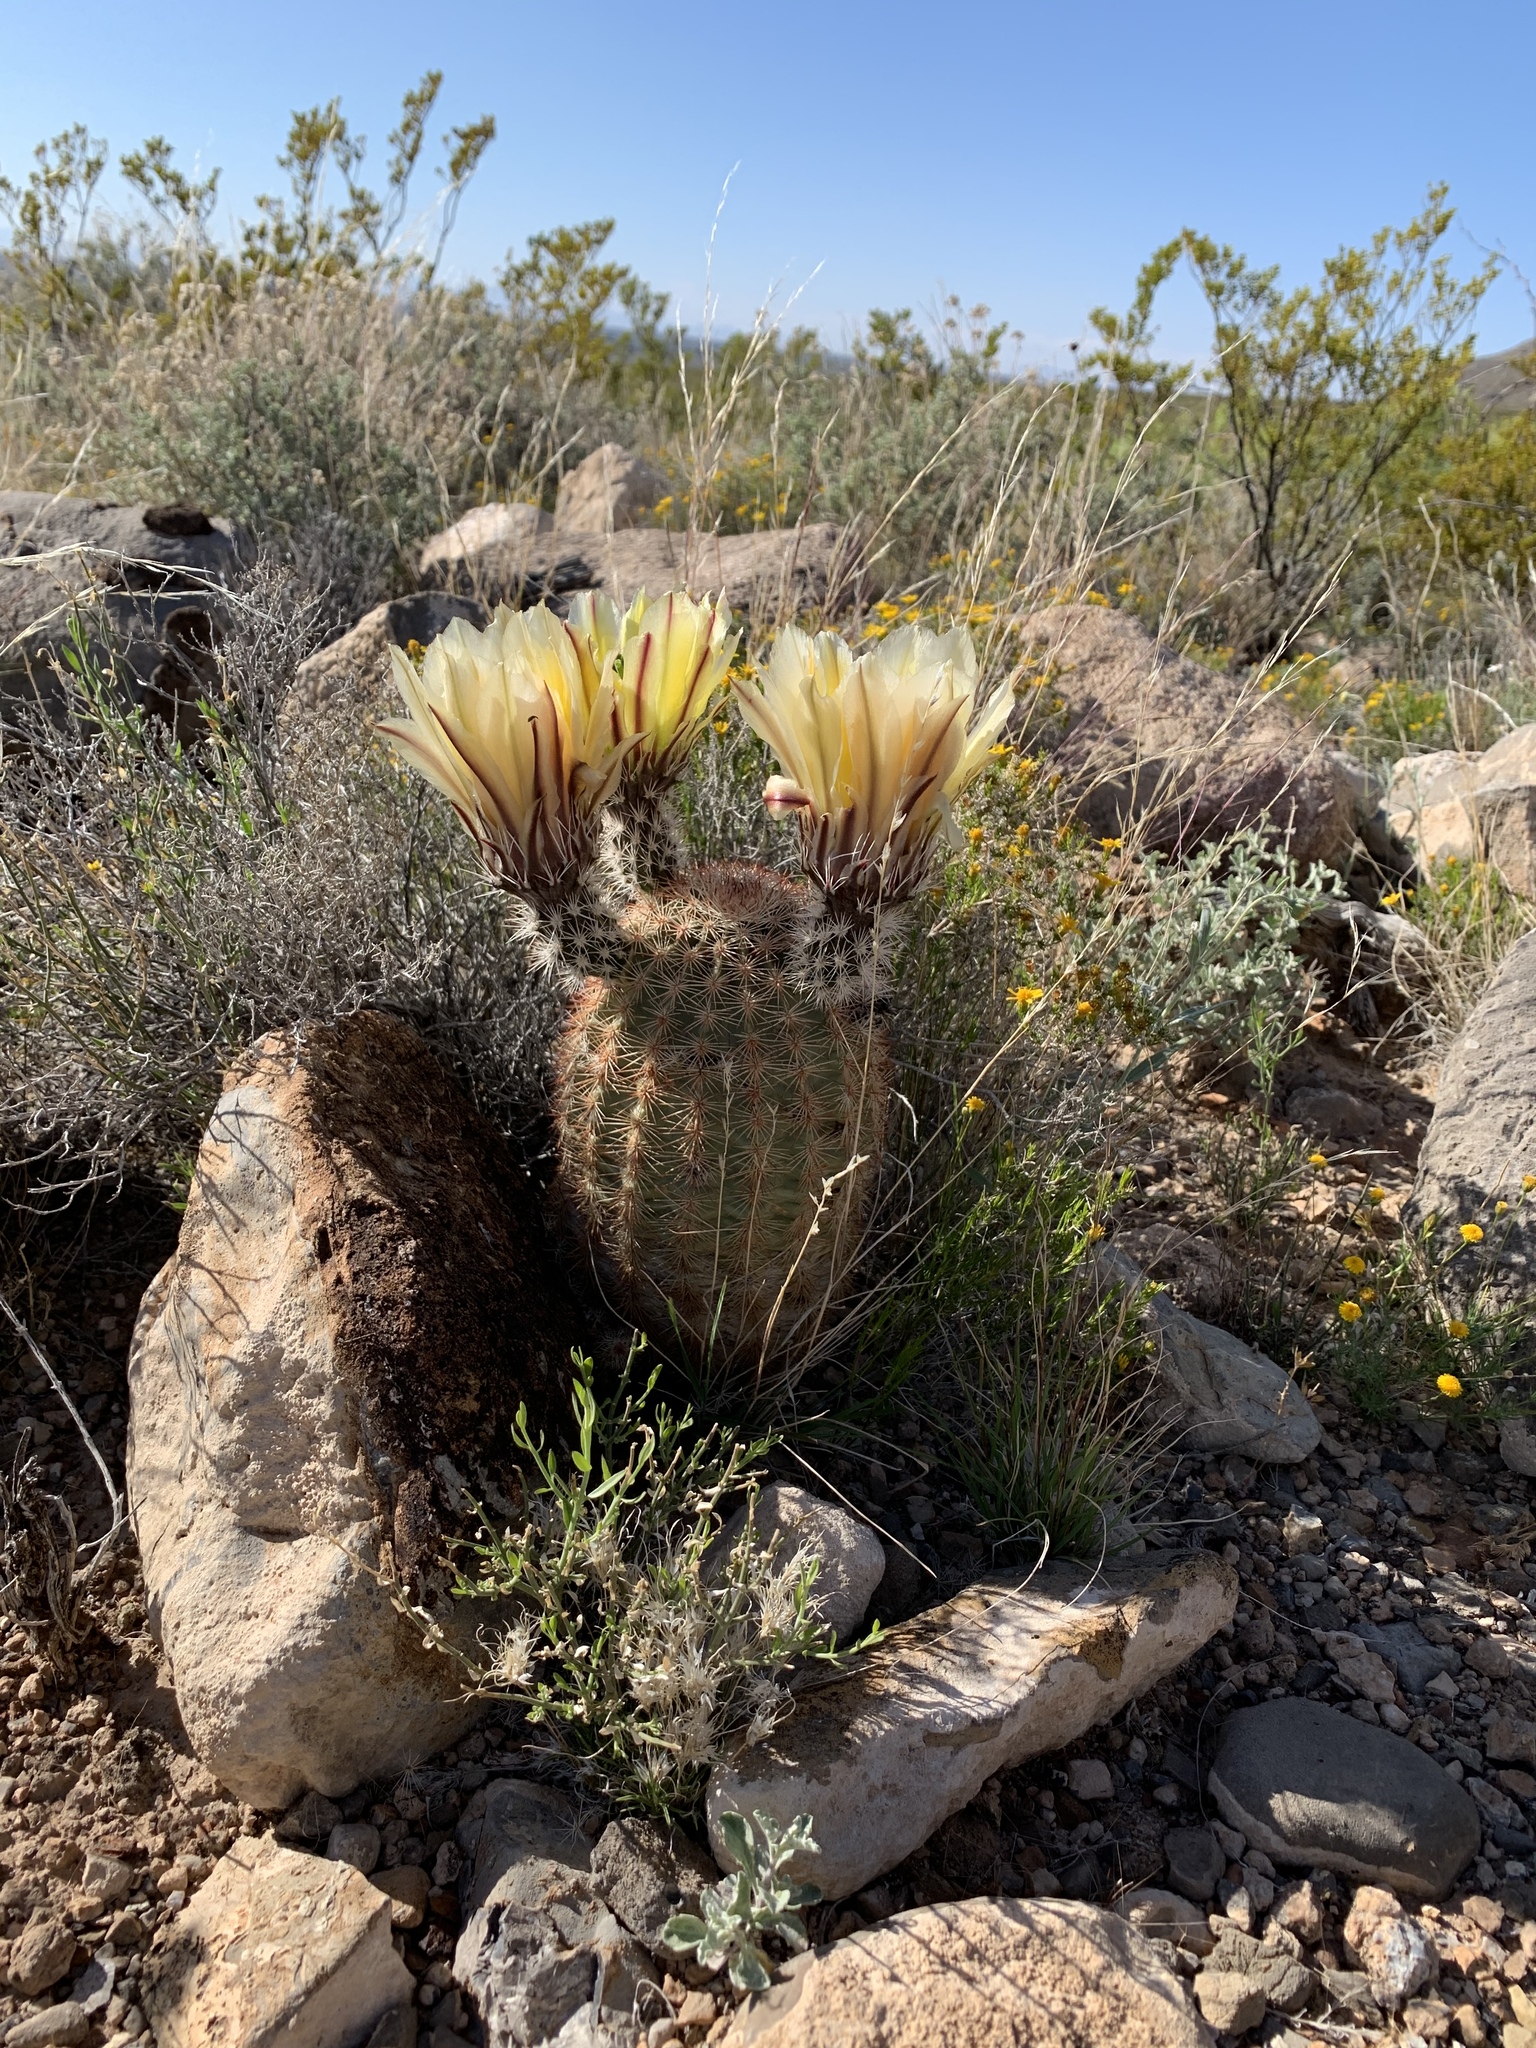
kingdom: Plantae
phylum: Tracheophyta
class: Magnoliopsida
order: Caryophyllales
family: Cactaceae
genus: Echinocereus
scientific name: Echinocereus dasyacanthus
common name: Spiny hedgehog cactus
